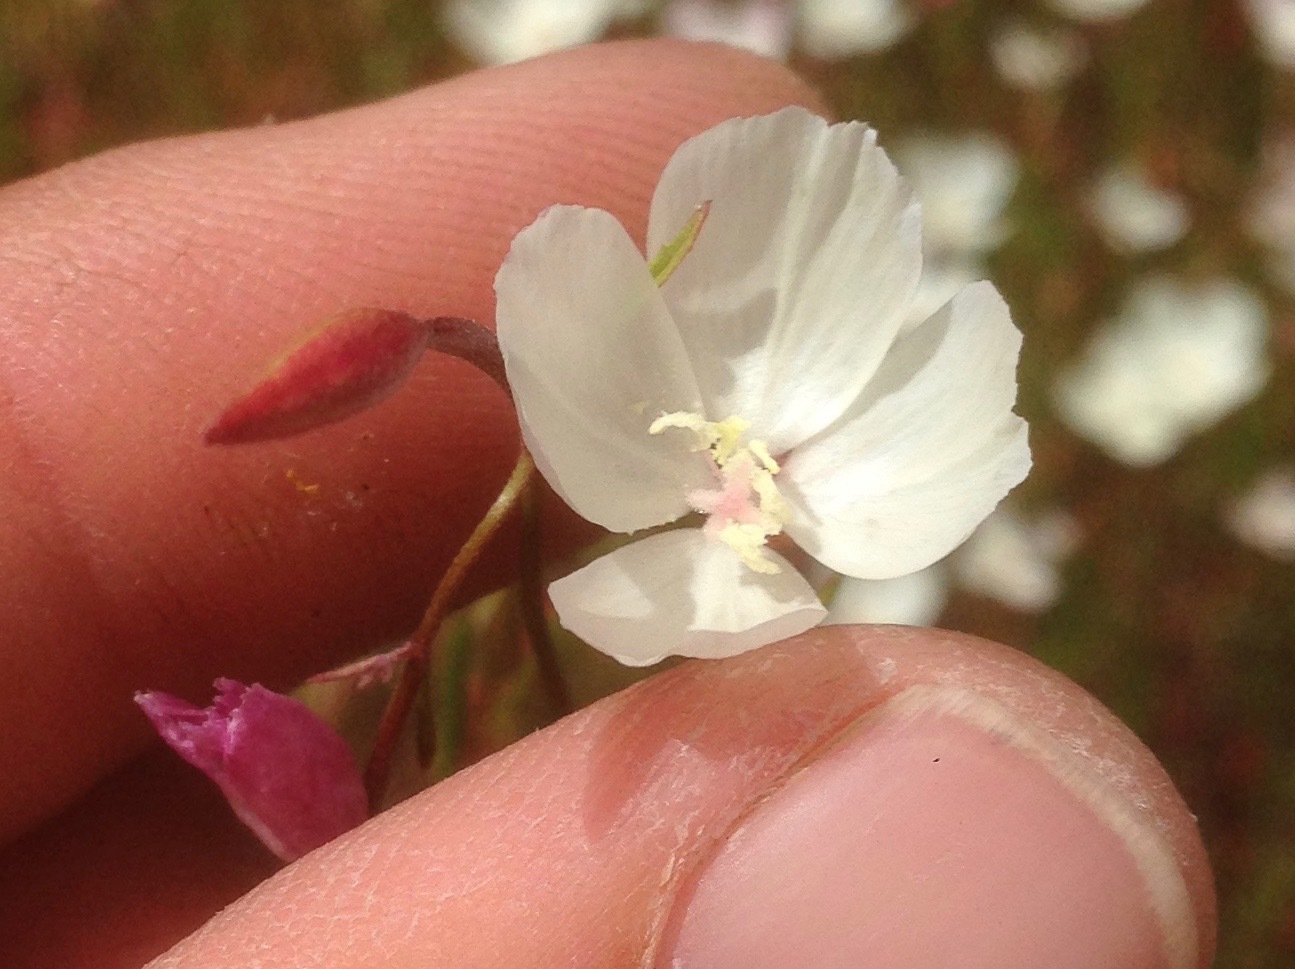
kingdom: Plantae
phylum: Tracheophyta
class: Magnoliopsida
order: Myrtales
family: Onagraceae
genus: Clarkia
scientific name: Clarkia epilobioides
